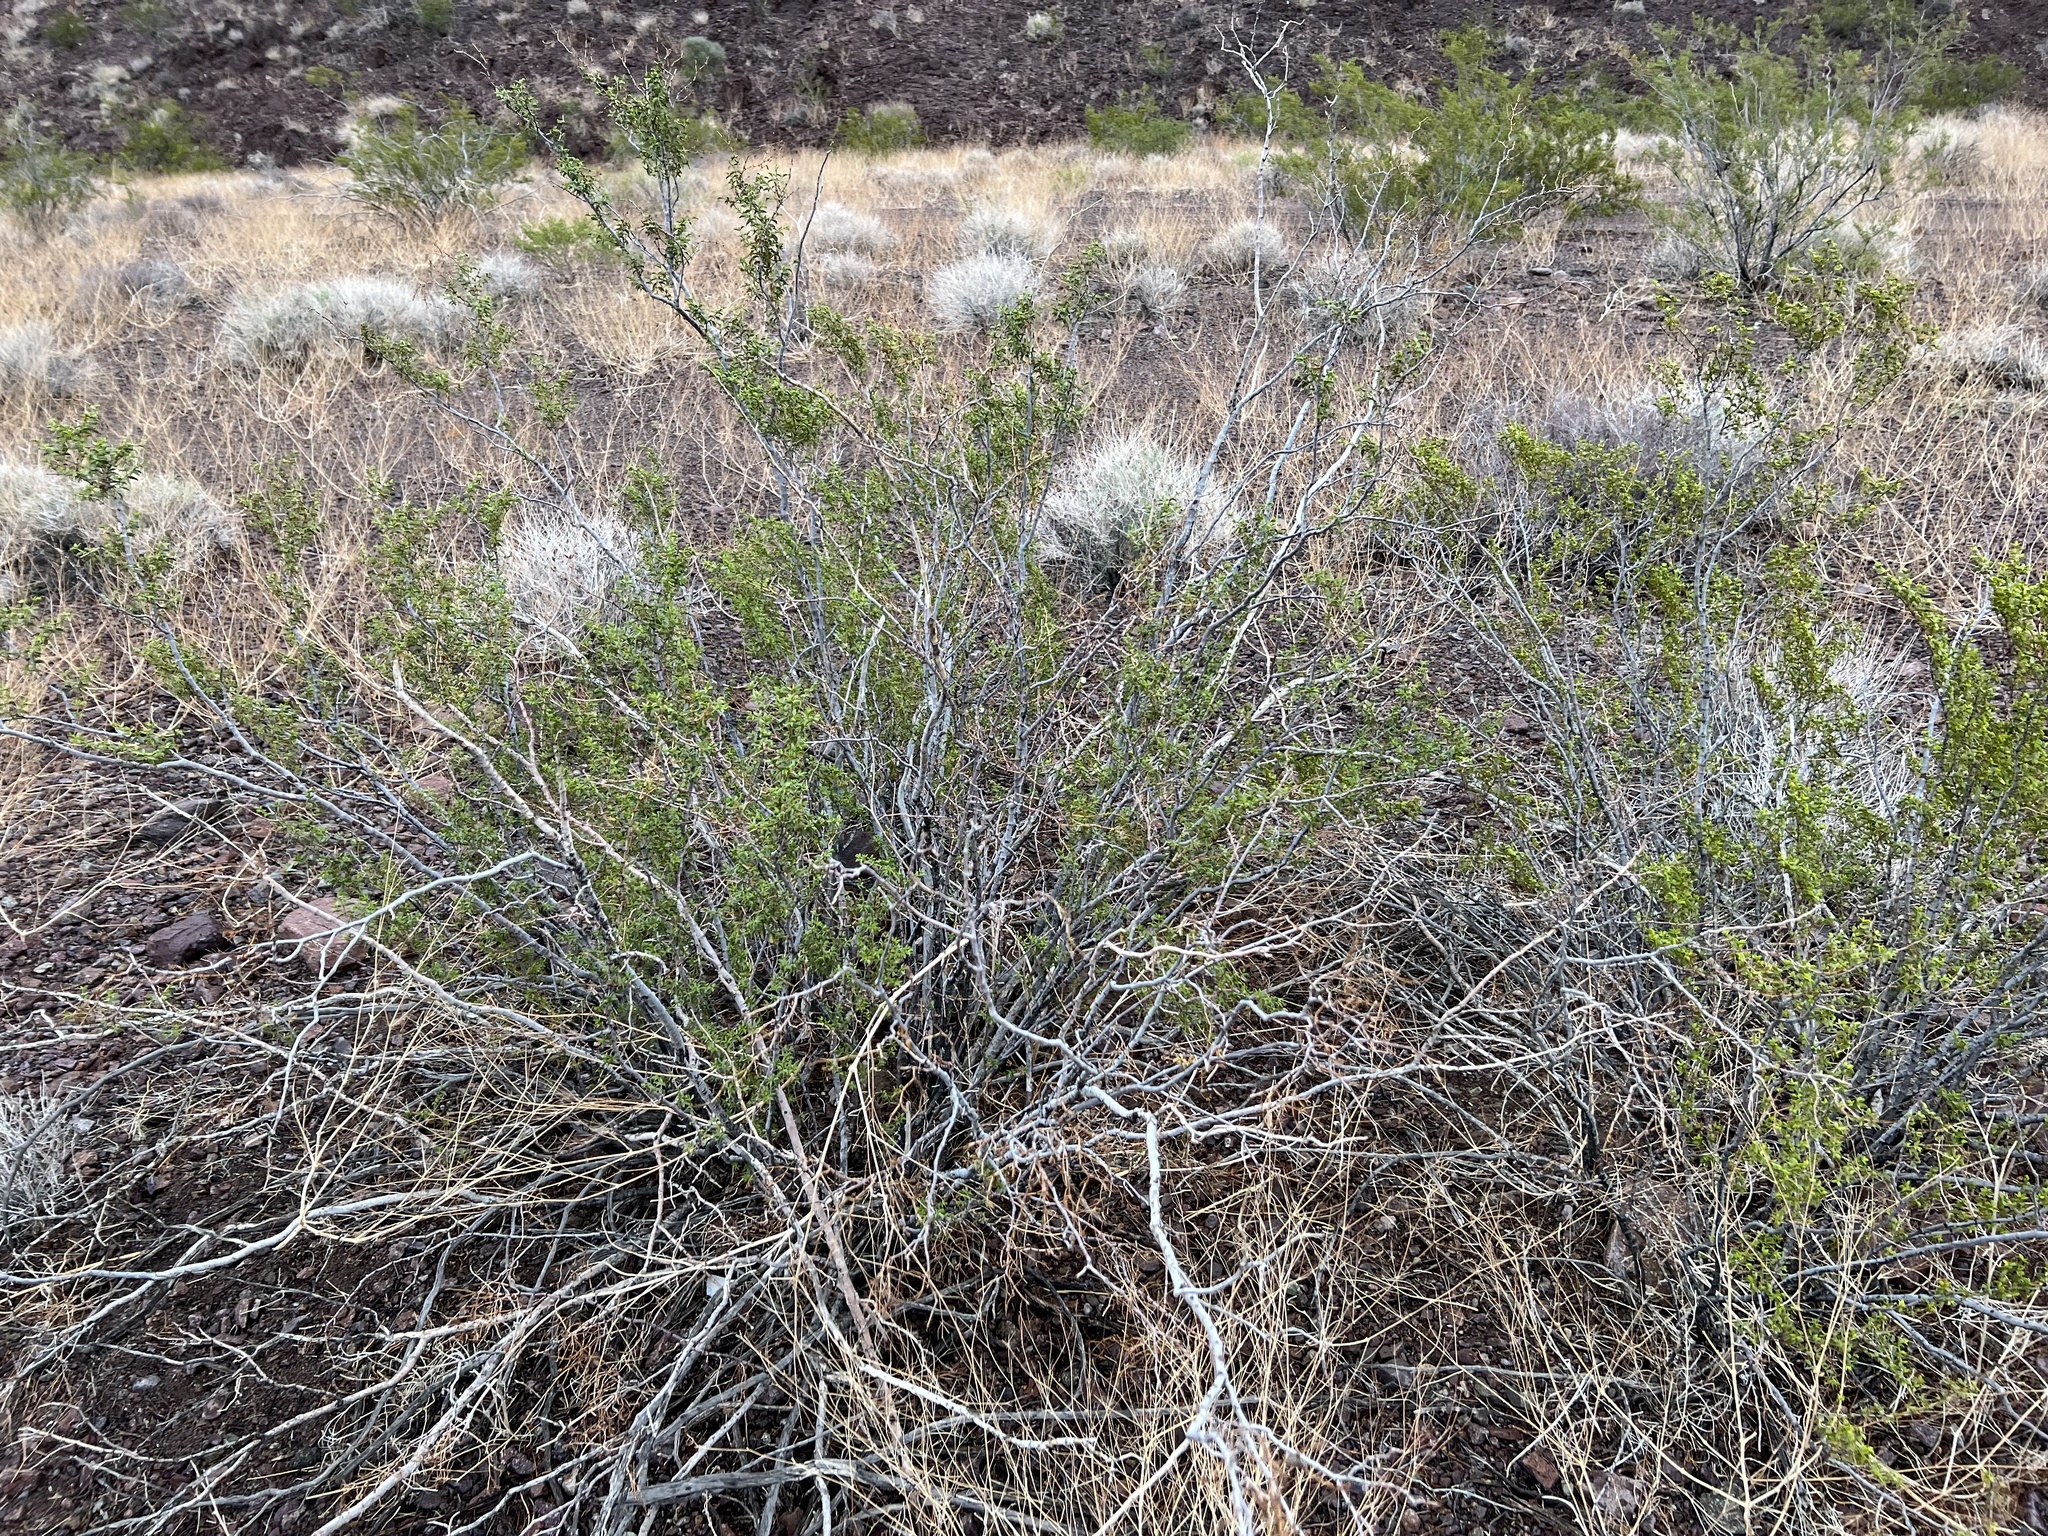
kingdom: Plantae
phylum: Tracheophyta
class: Magnoliopsida
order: Zygophyllales
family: Zygophyllaceae
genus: Larrea
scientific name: Larrea tridentata
